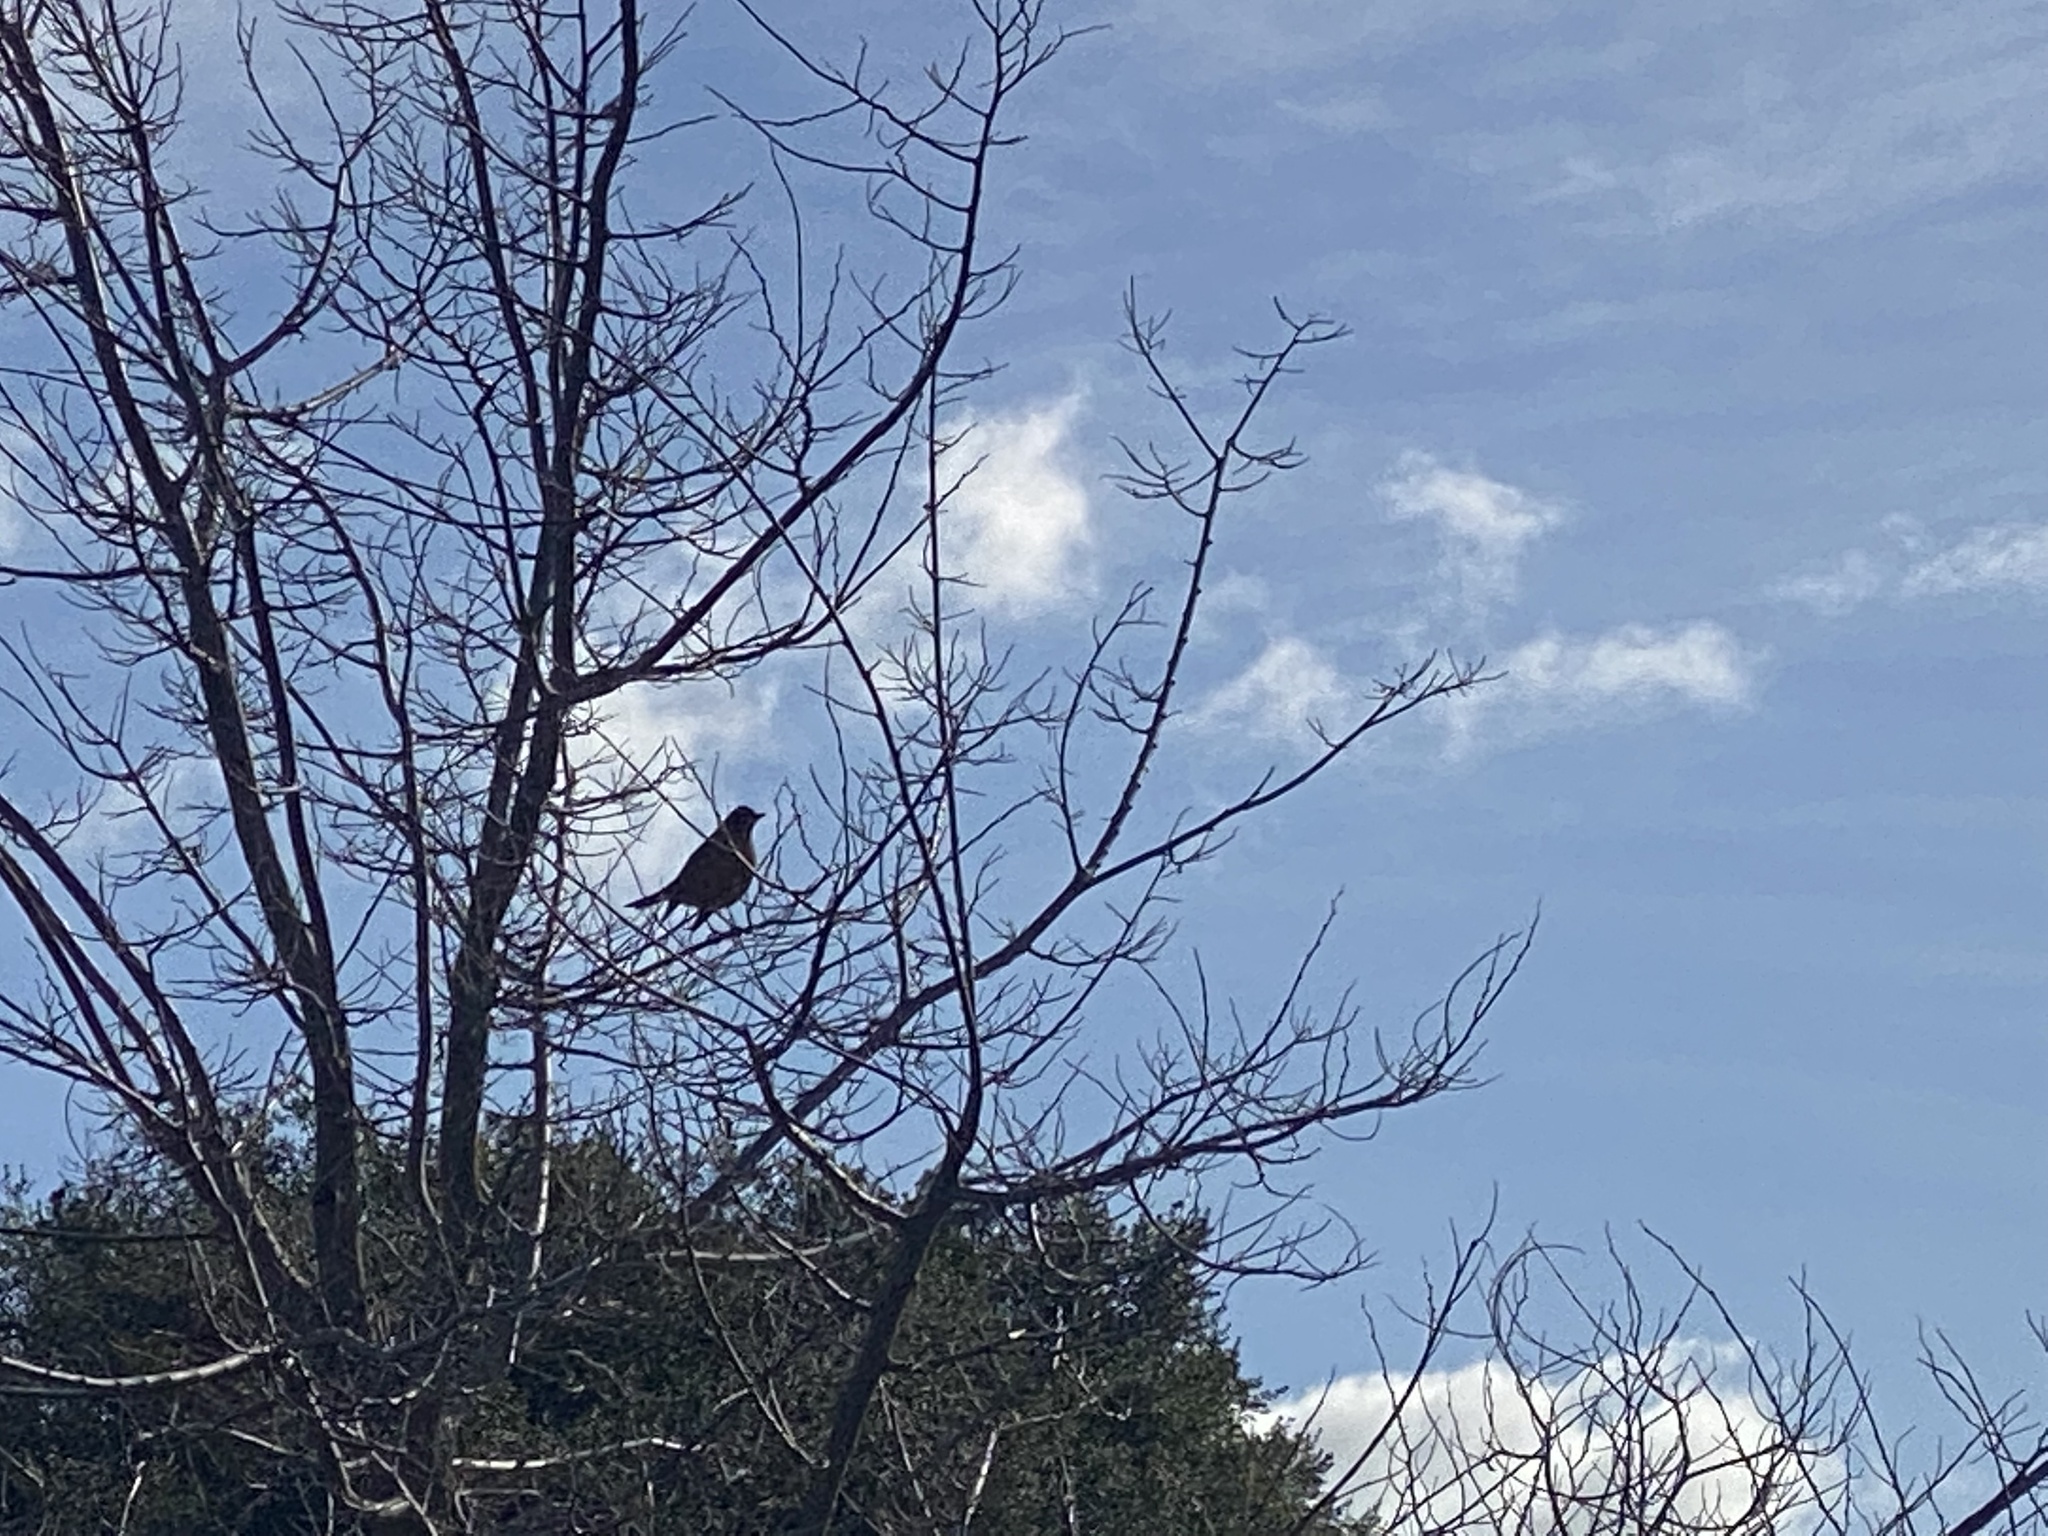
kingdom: Animalia
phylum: Chordata
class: Aves
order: Passeriformes
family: Turdidae
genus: Turdus
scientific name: Turdus migratorius
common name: American robin
